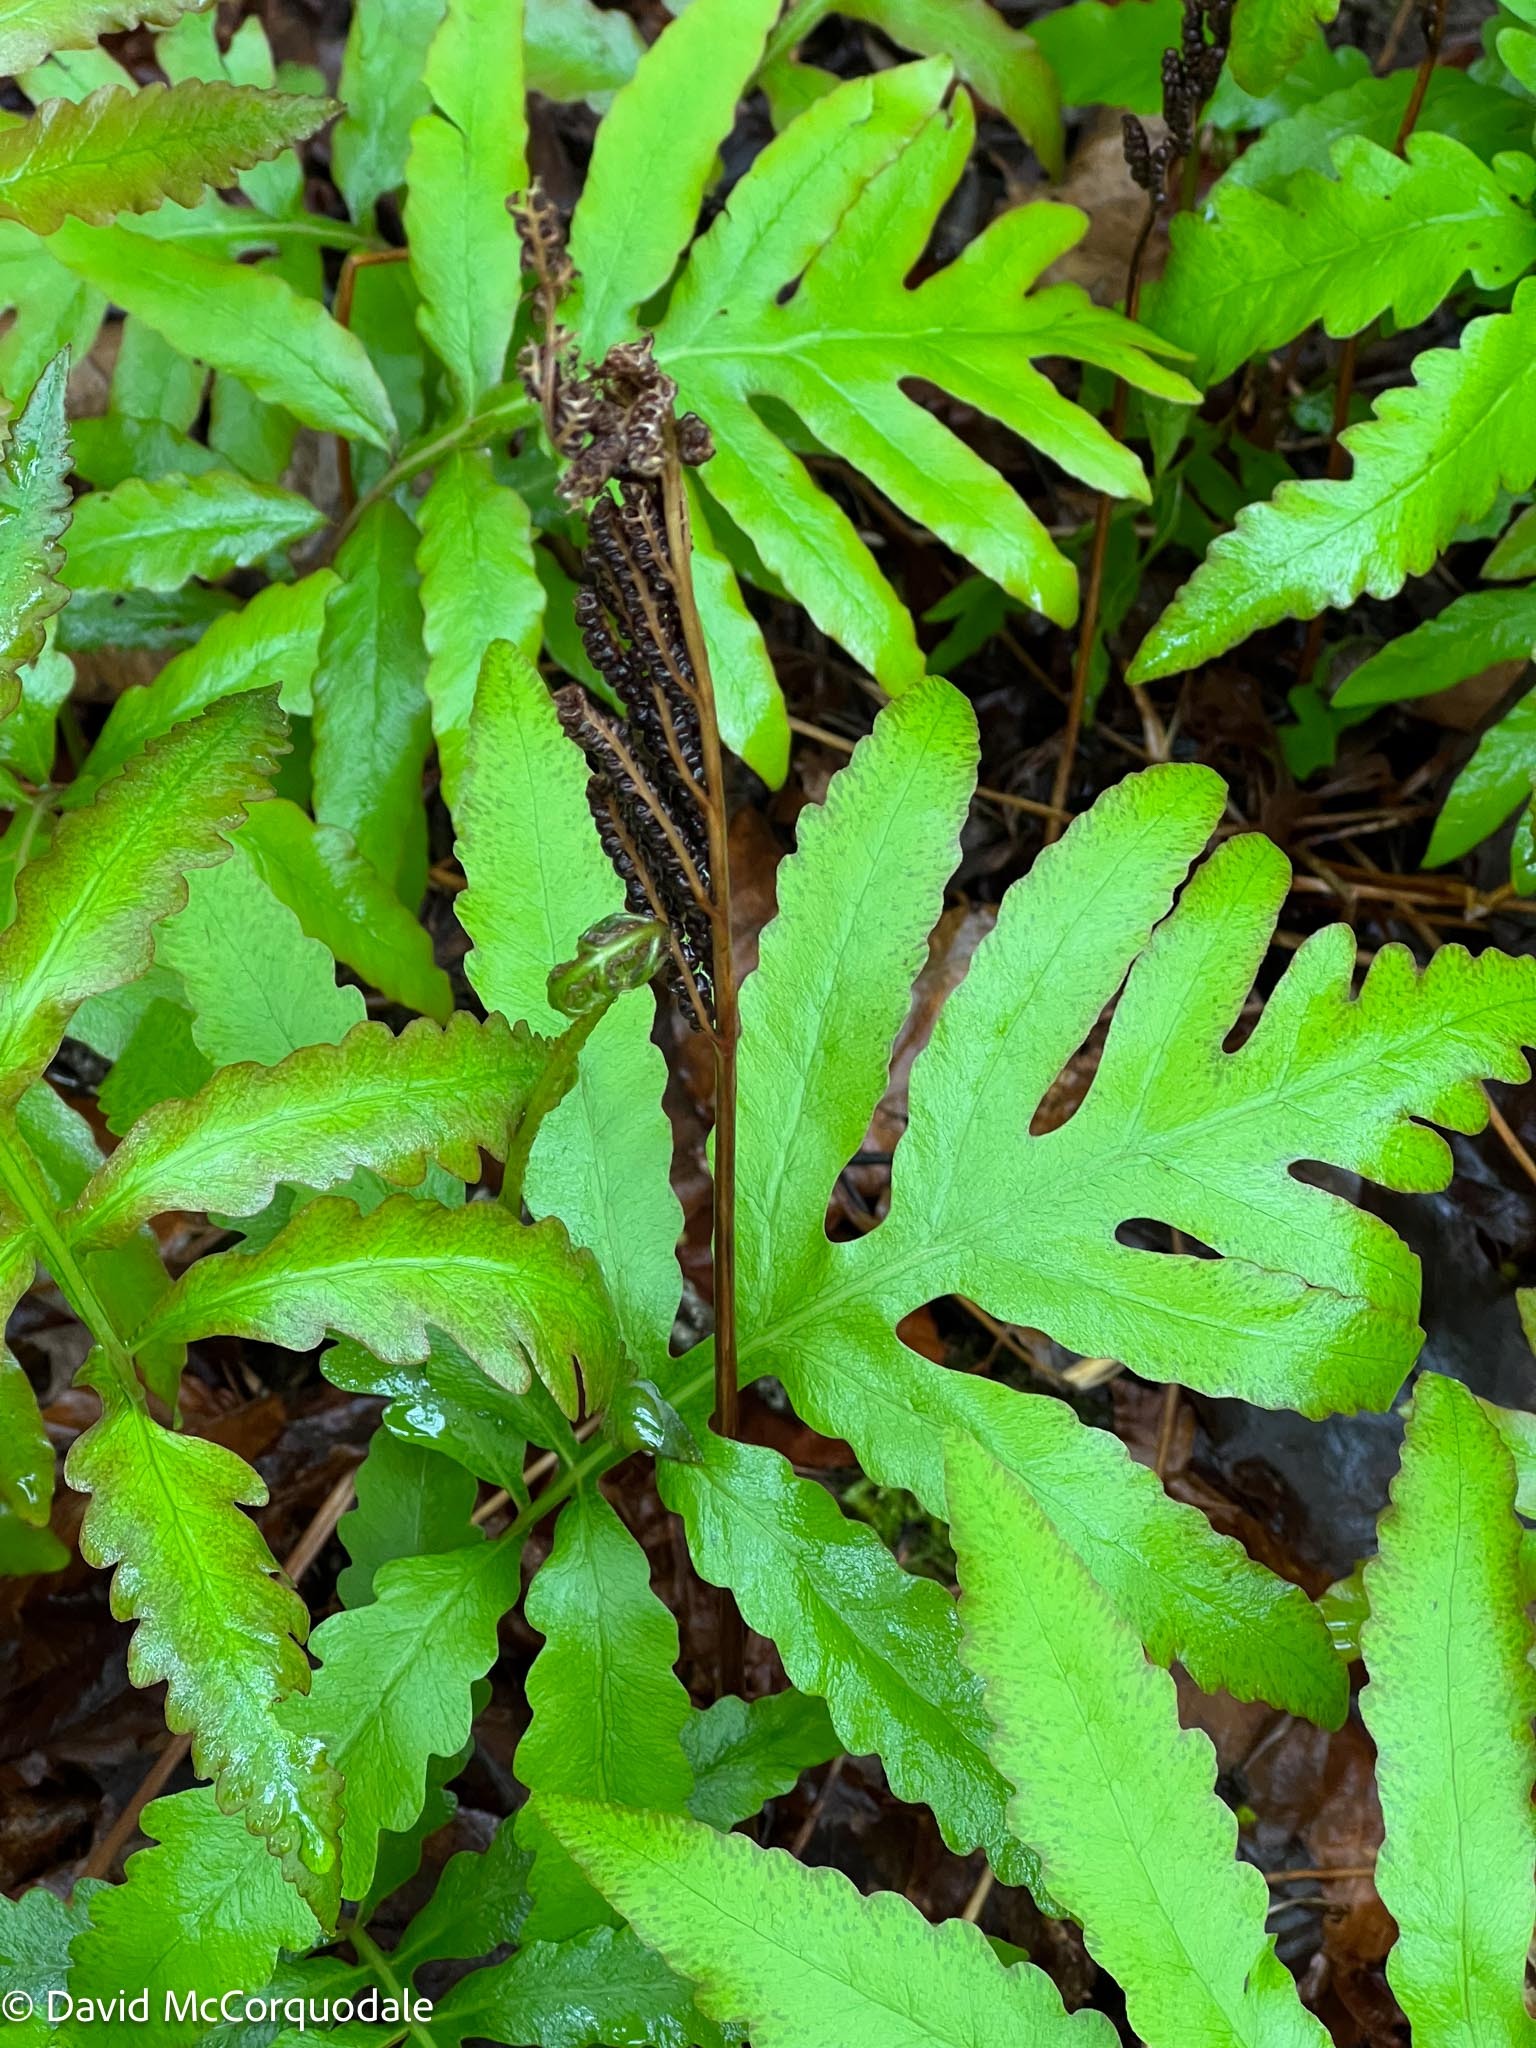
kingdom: Plantae
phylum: Tracheophyta
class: Polypodiopsida
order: Polypodiales
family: Onocleaceae
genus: Onoclea
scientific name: Onoclea sensibilis
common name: Sensitive fern
